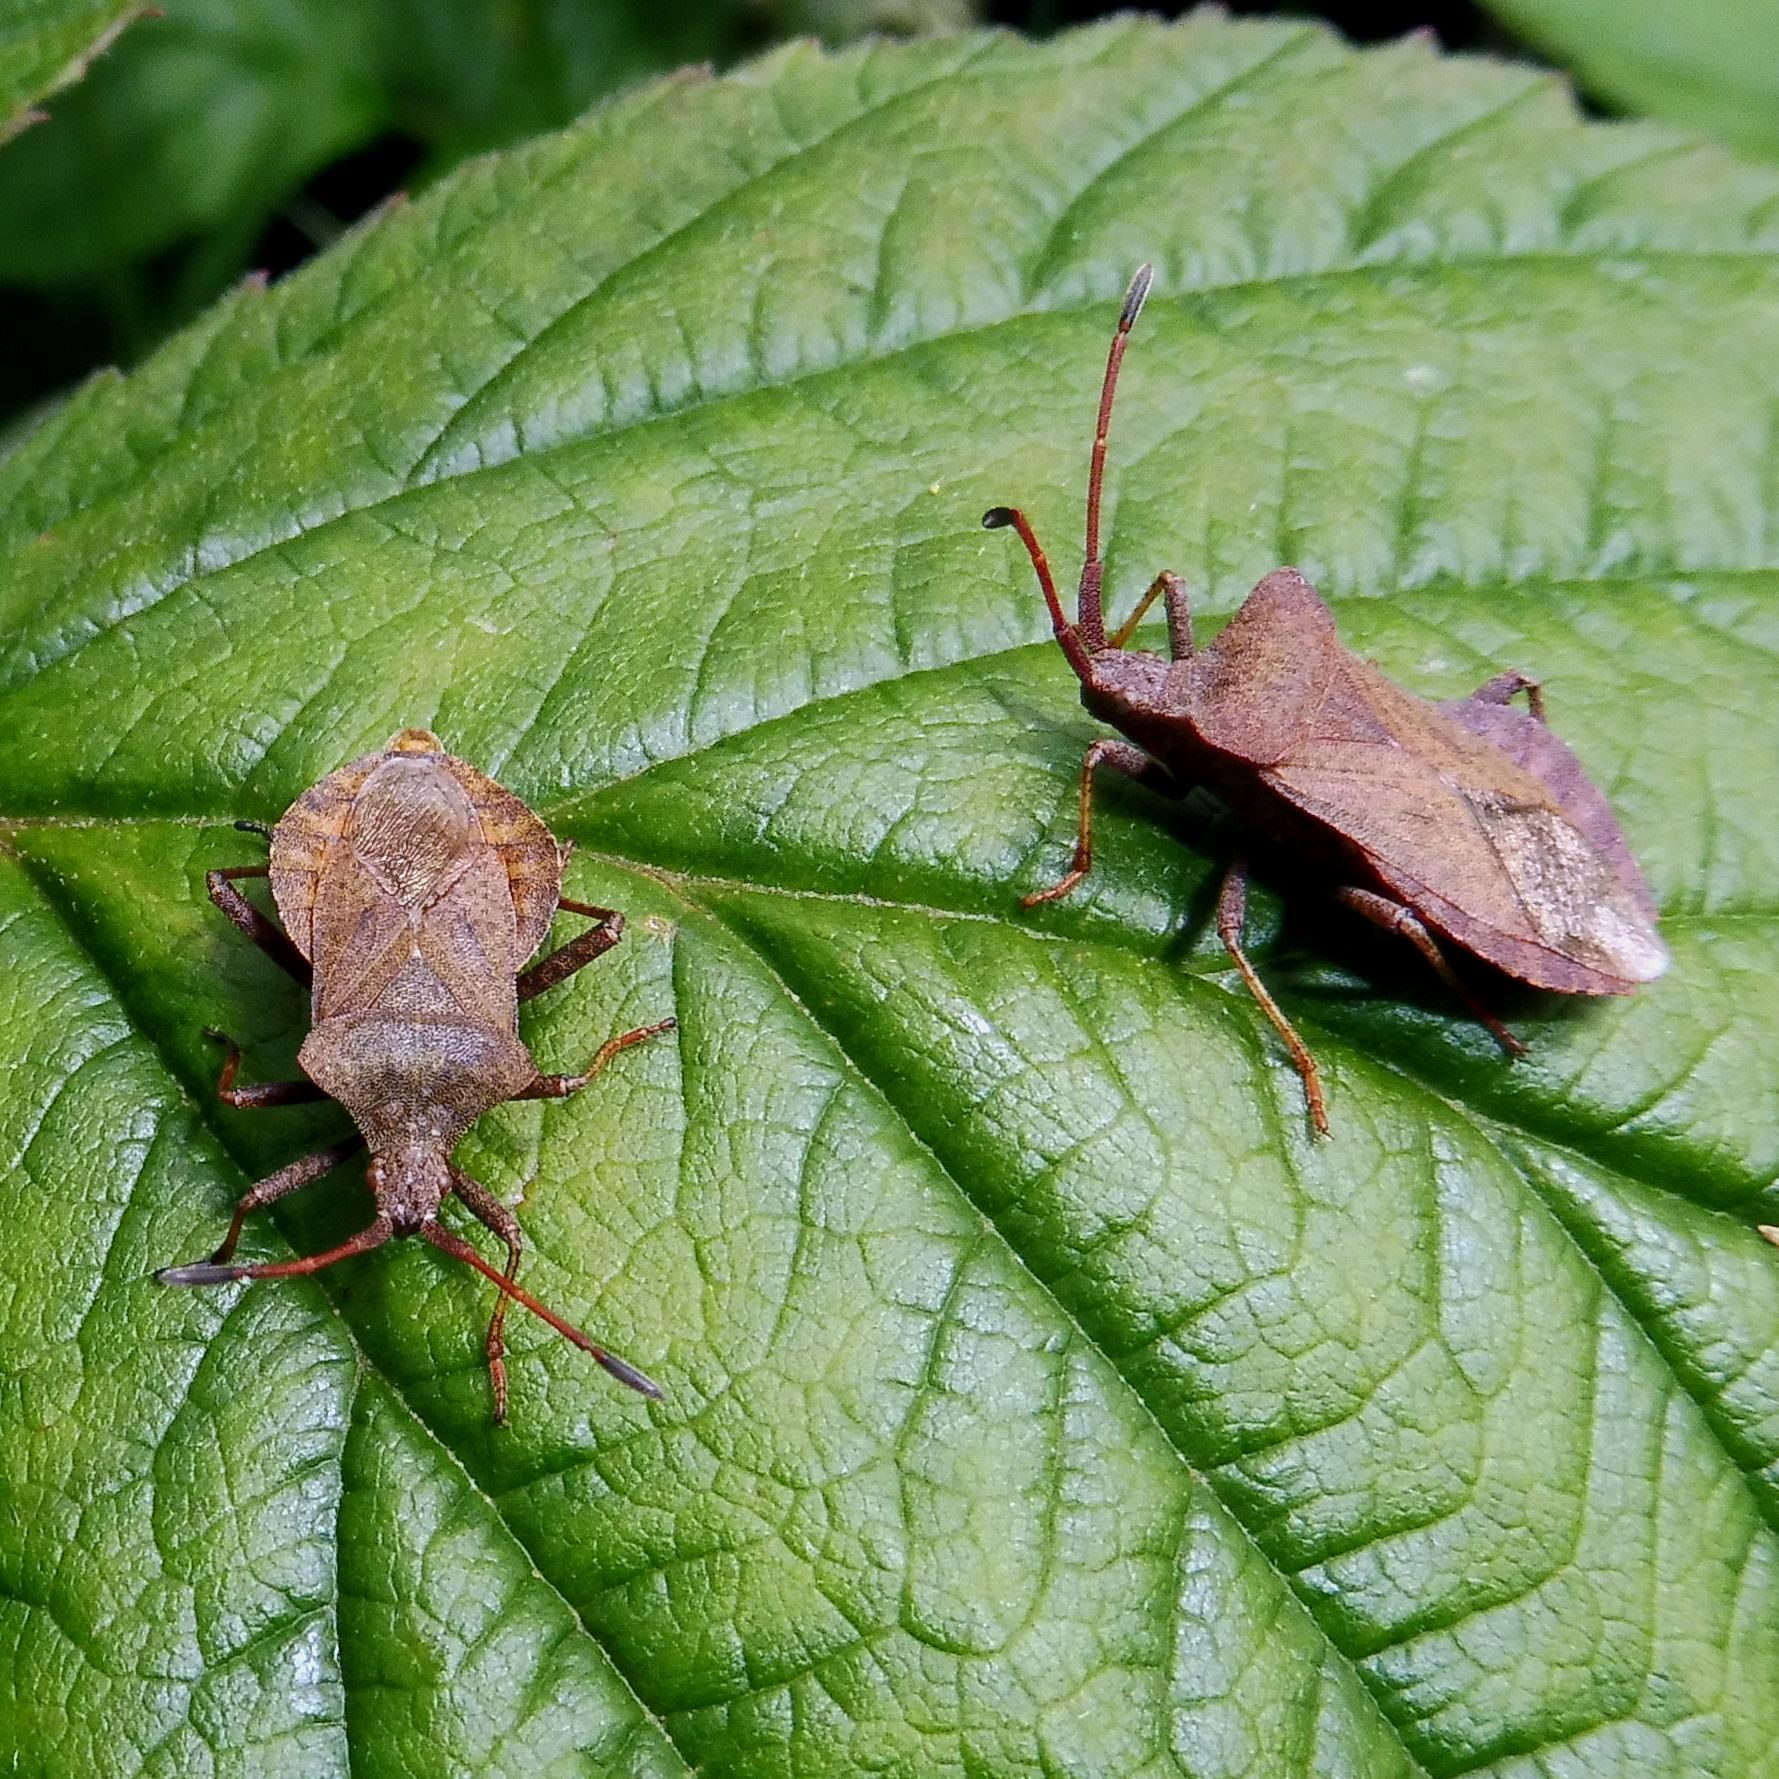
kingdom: Animalia
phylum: Arthropoda
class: Insecta
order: Hemiptera
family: Coreidae
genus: Coreus
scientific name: Coreus marginatus
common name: Dock bug
